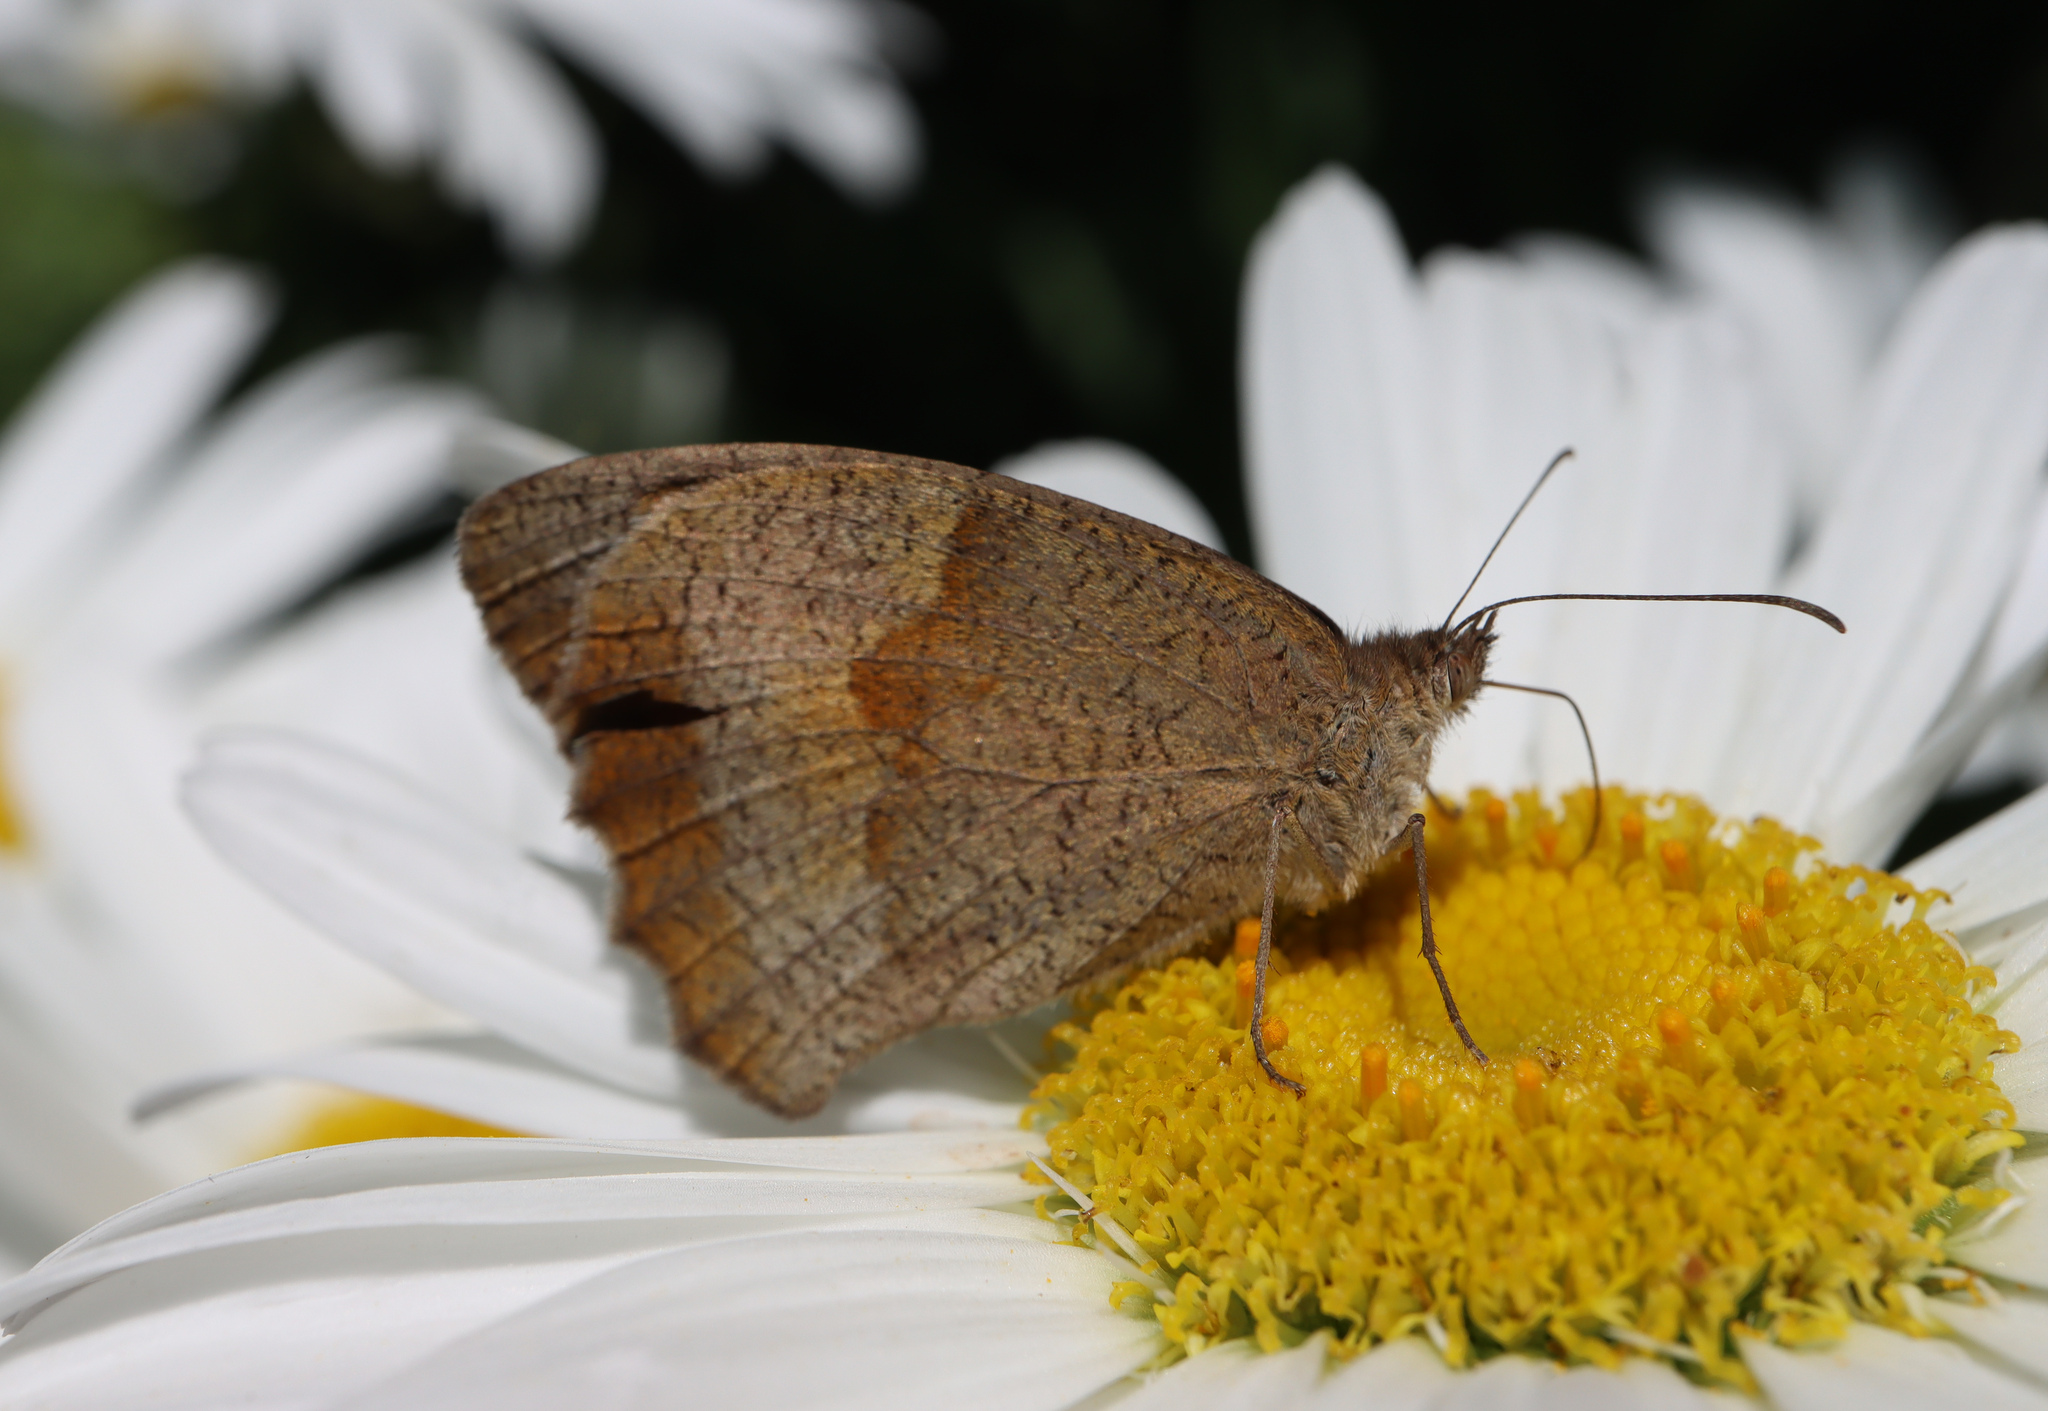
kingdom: Animalia
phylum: Arthropoda
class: Insecta
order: Lepidoptera
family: Nymphalidae
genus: Maniola
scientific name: Maniola jurtina
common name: Meadow brown
